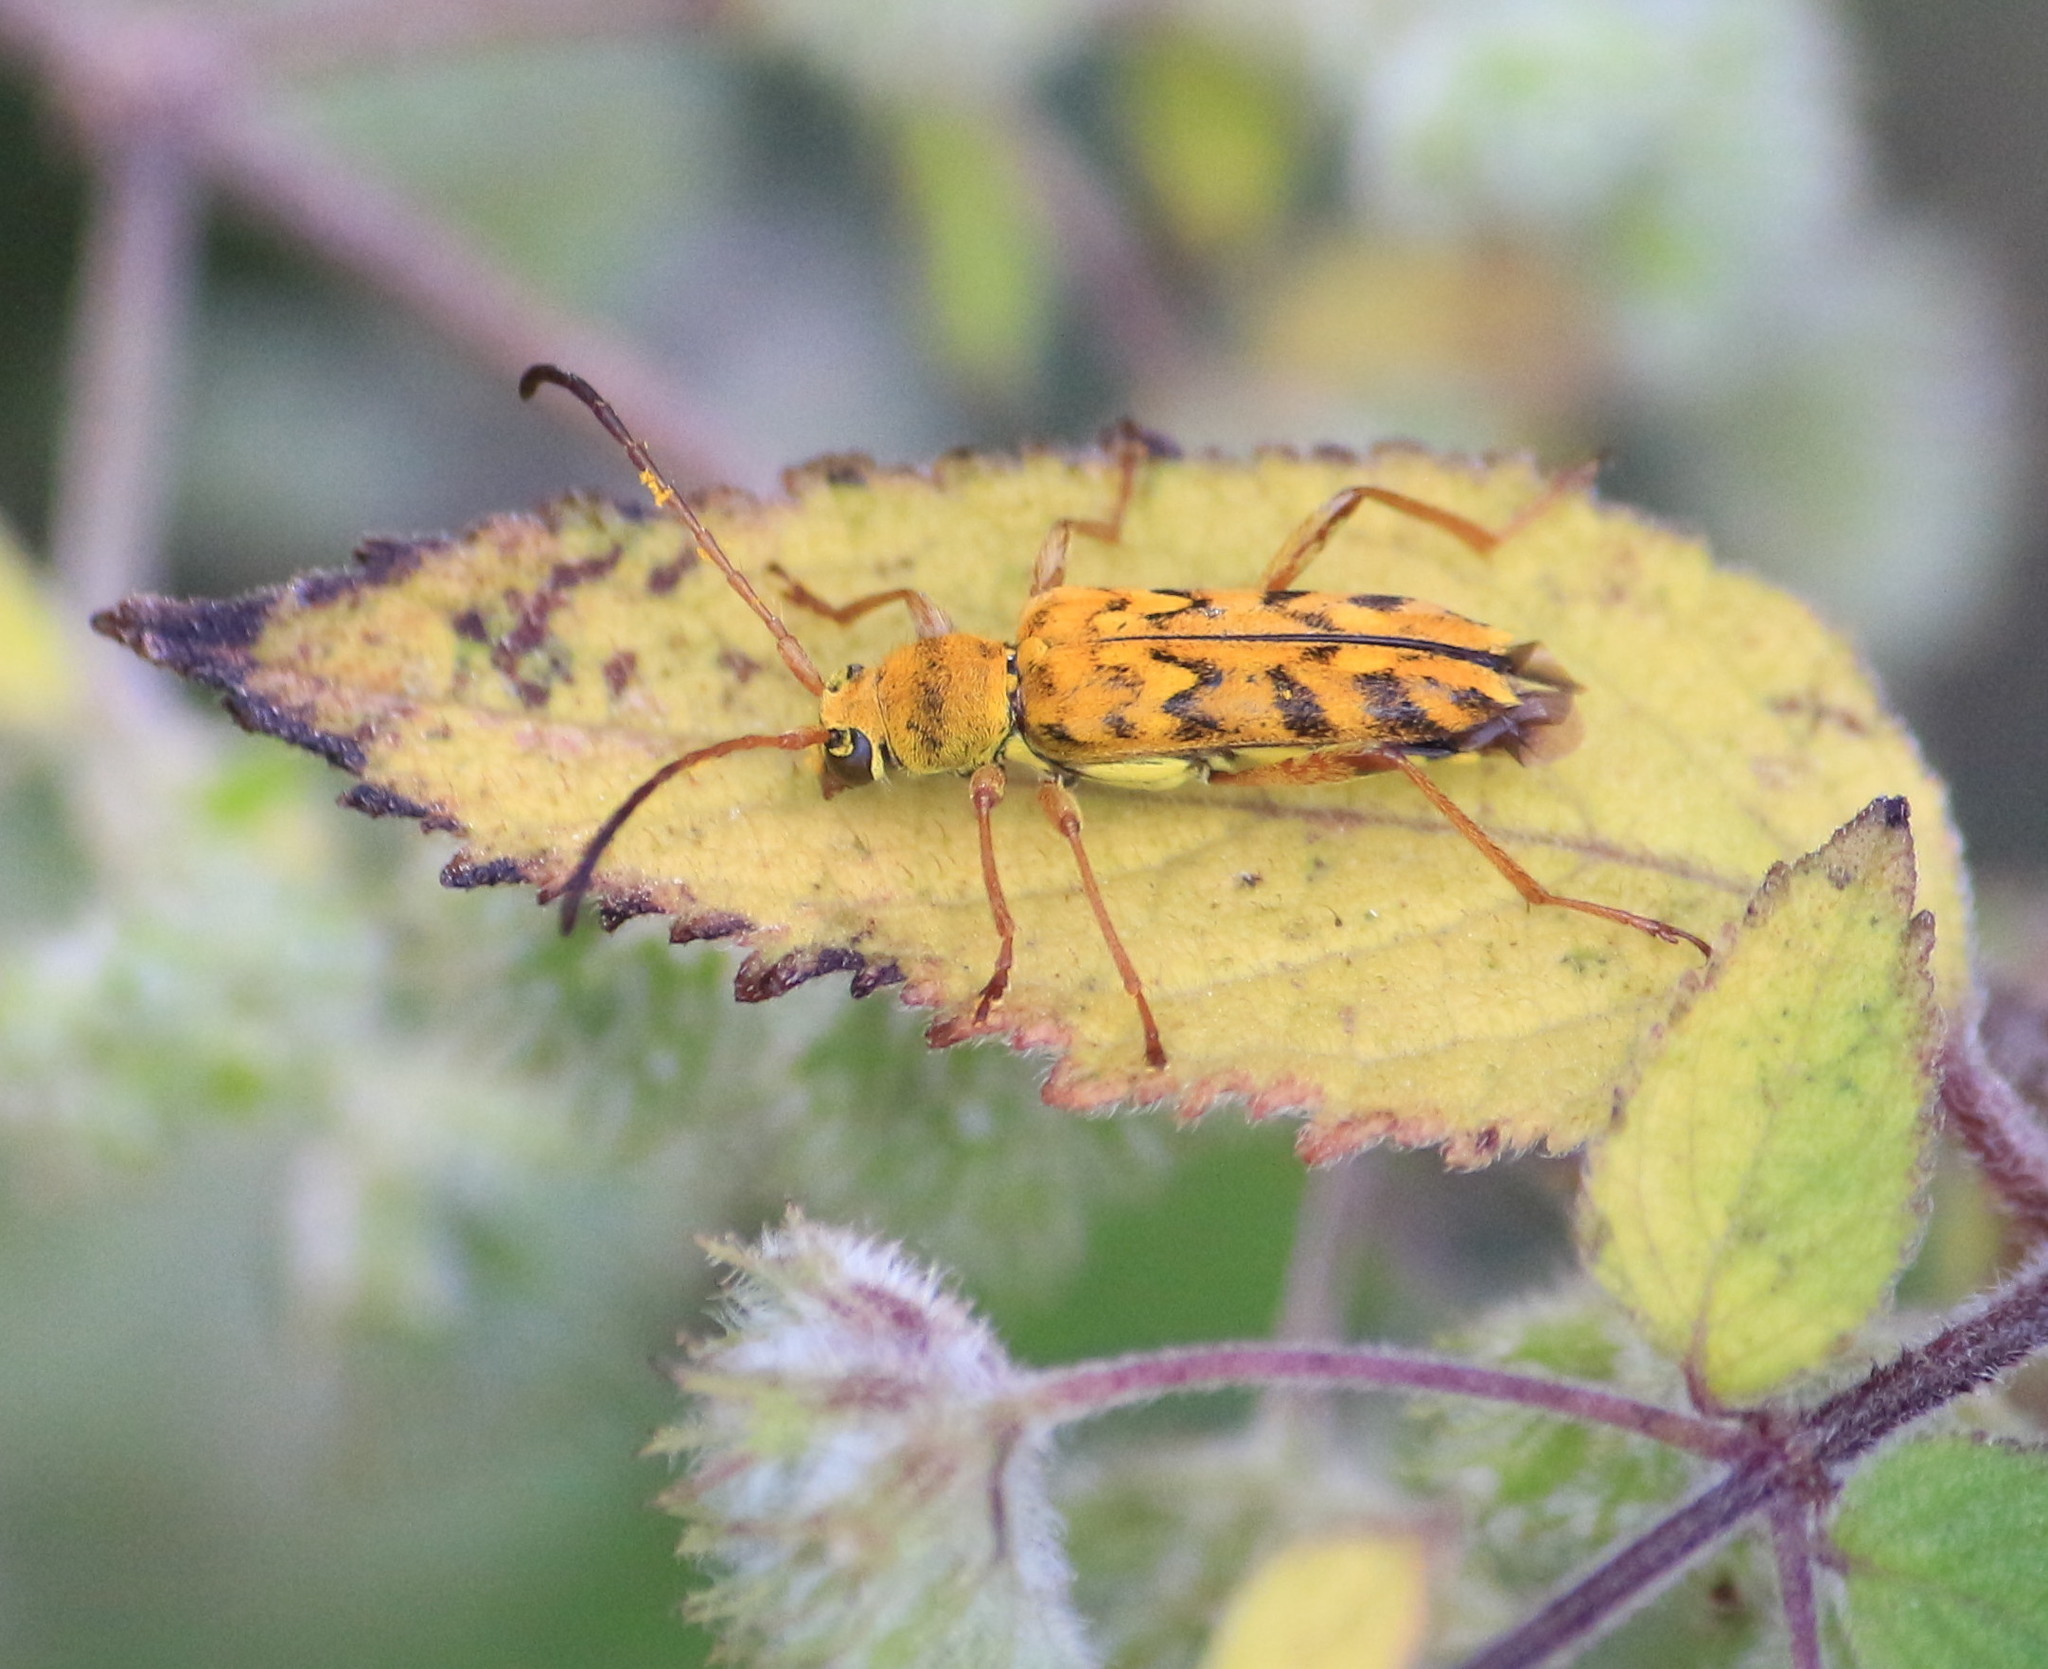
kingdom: Animalia
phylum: Arthropoda
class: Insecta
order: Coleoptera
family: Cerambycidae
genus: Ochraethes
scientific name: Ochraethes pollinosus
